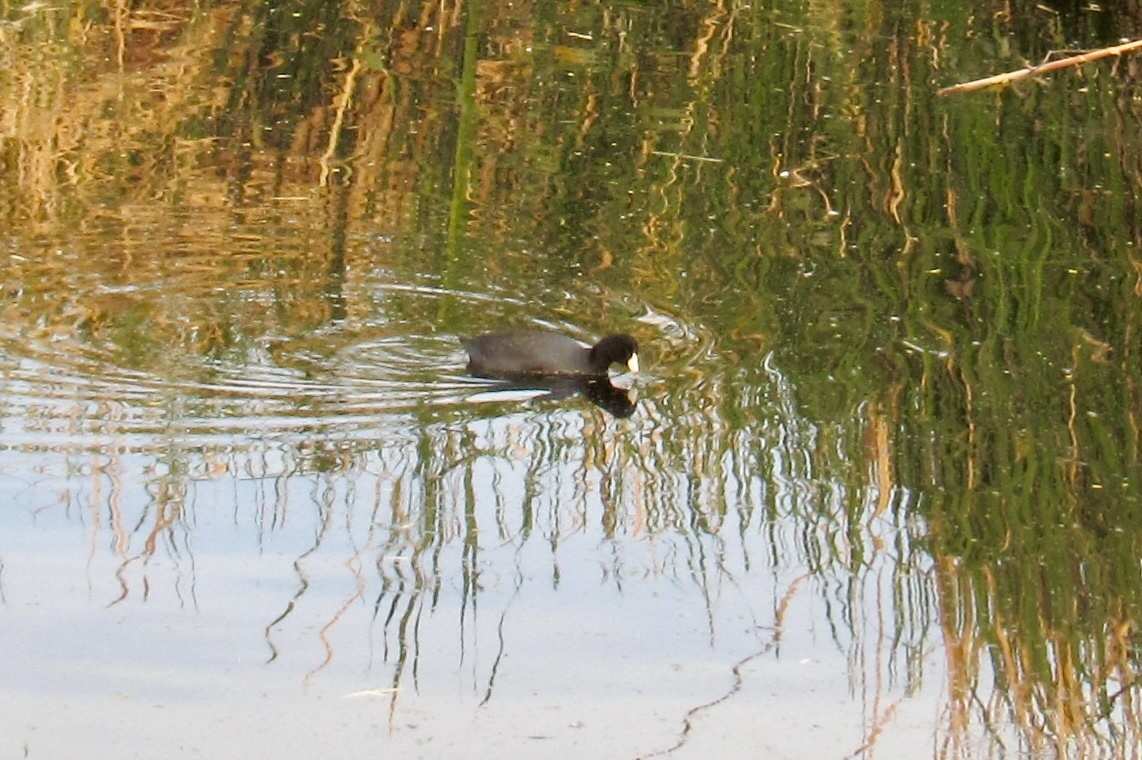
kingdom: Animalia
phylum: Chordata
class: Aves
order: Gruiformes
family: Rallidae
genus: Fulica
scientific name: Fulica americana
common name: American coot
